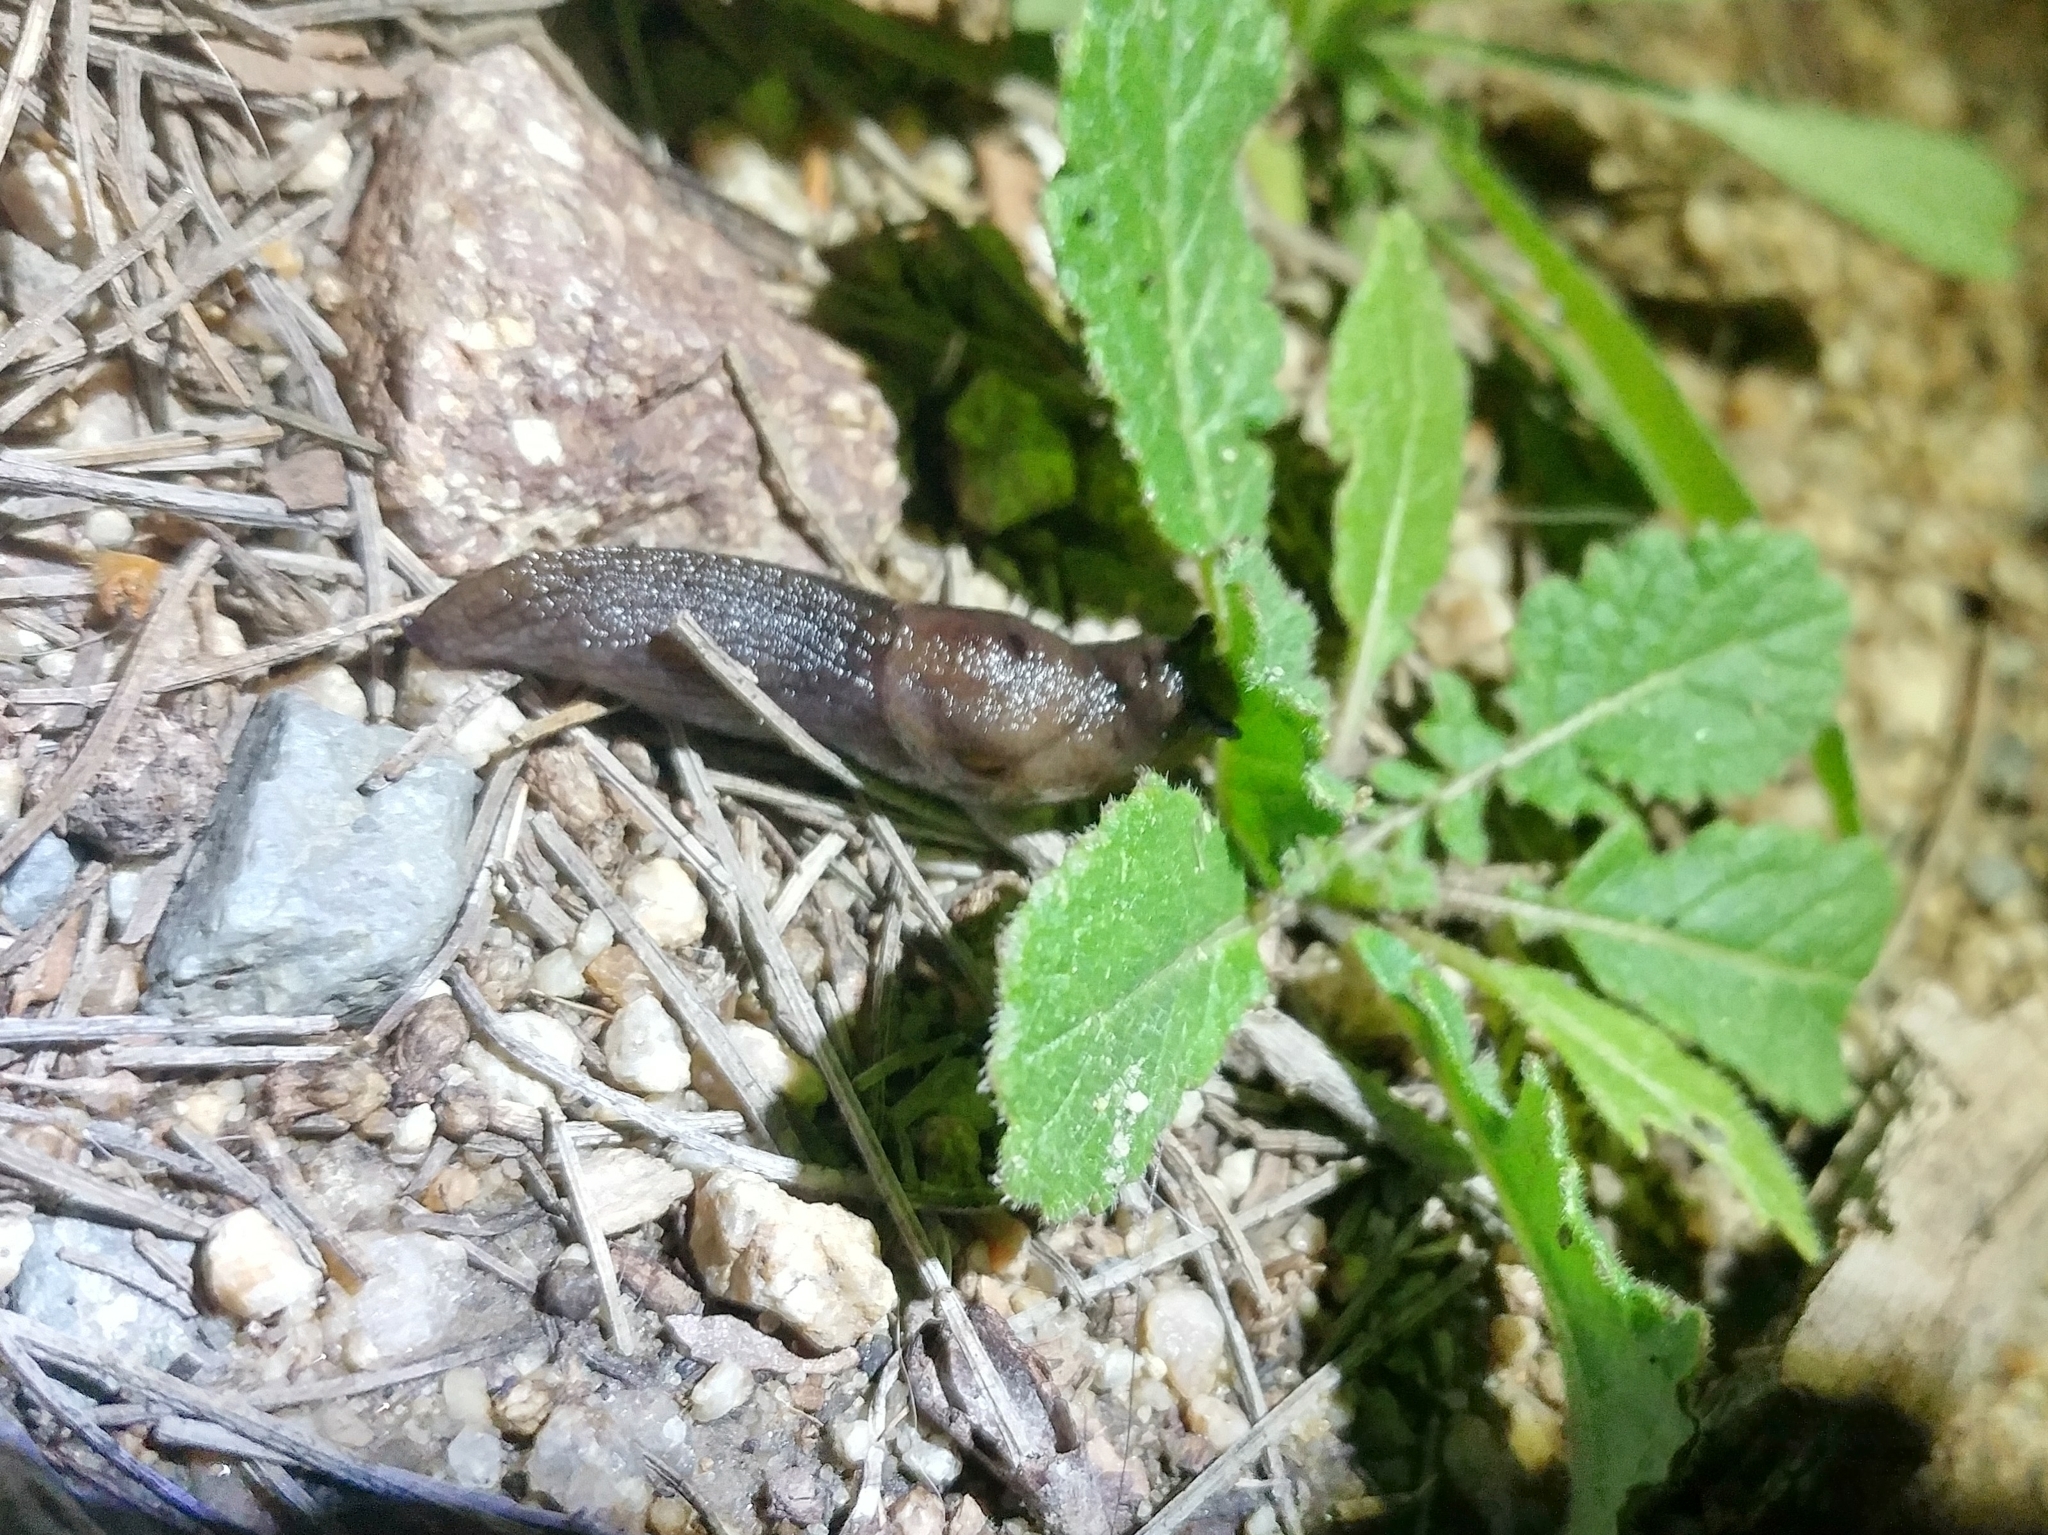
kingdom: Animalia
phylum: Mollusca
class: Gastropoda
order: Stylommatophora
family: Milacidae
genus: Milax
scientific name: Milax gagates
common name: Greenhouse slug
